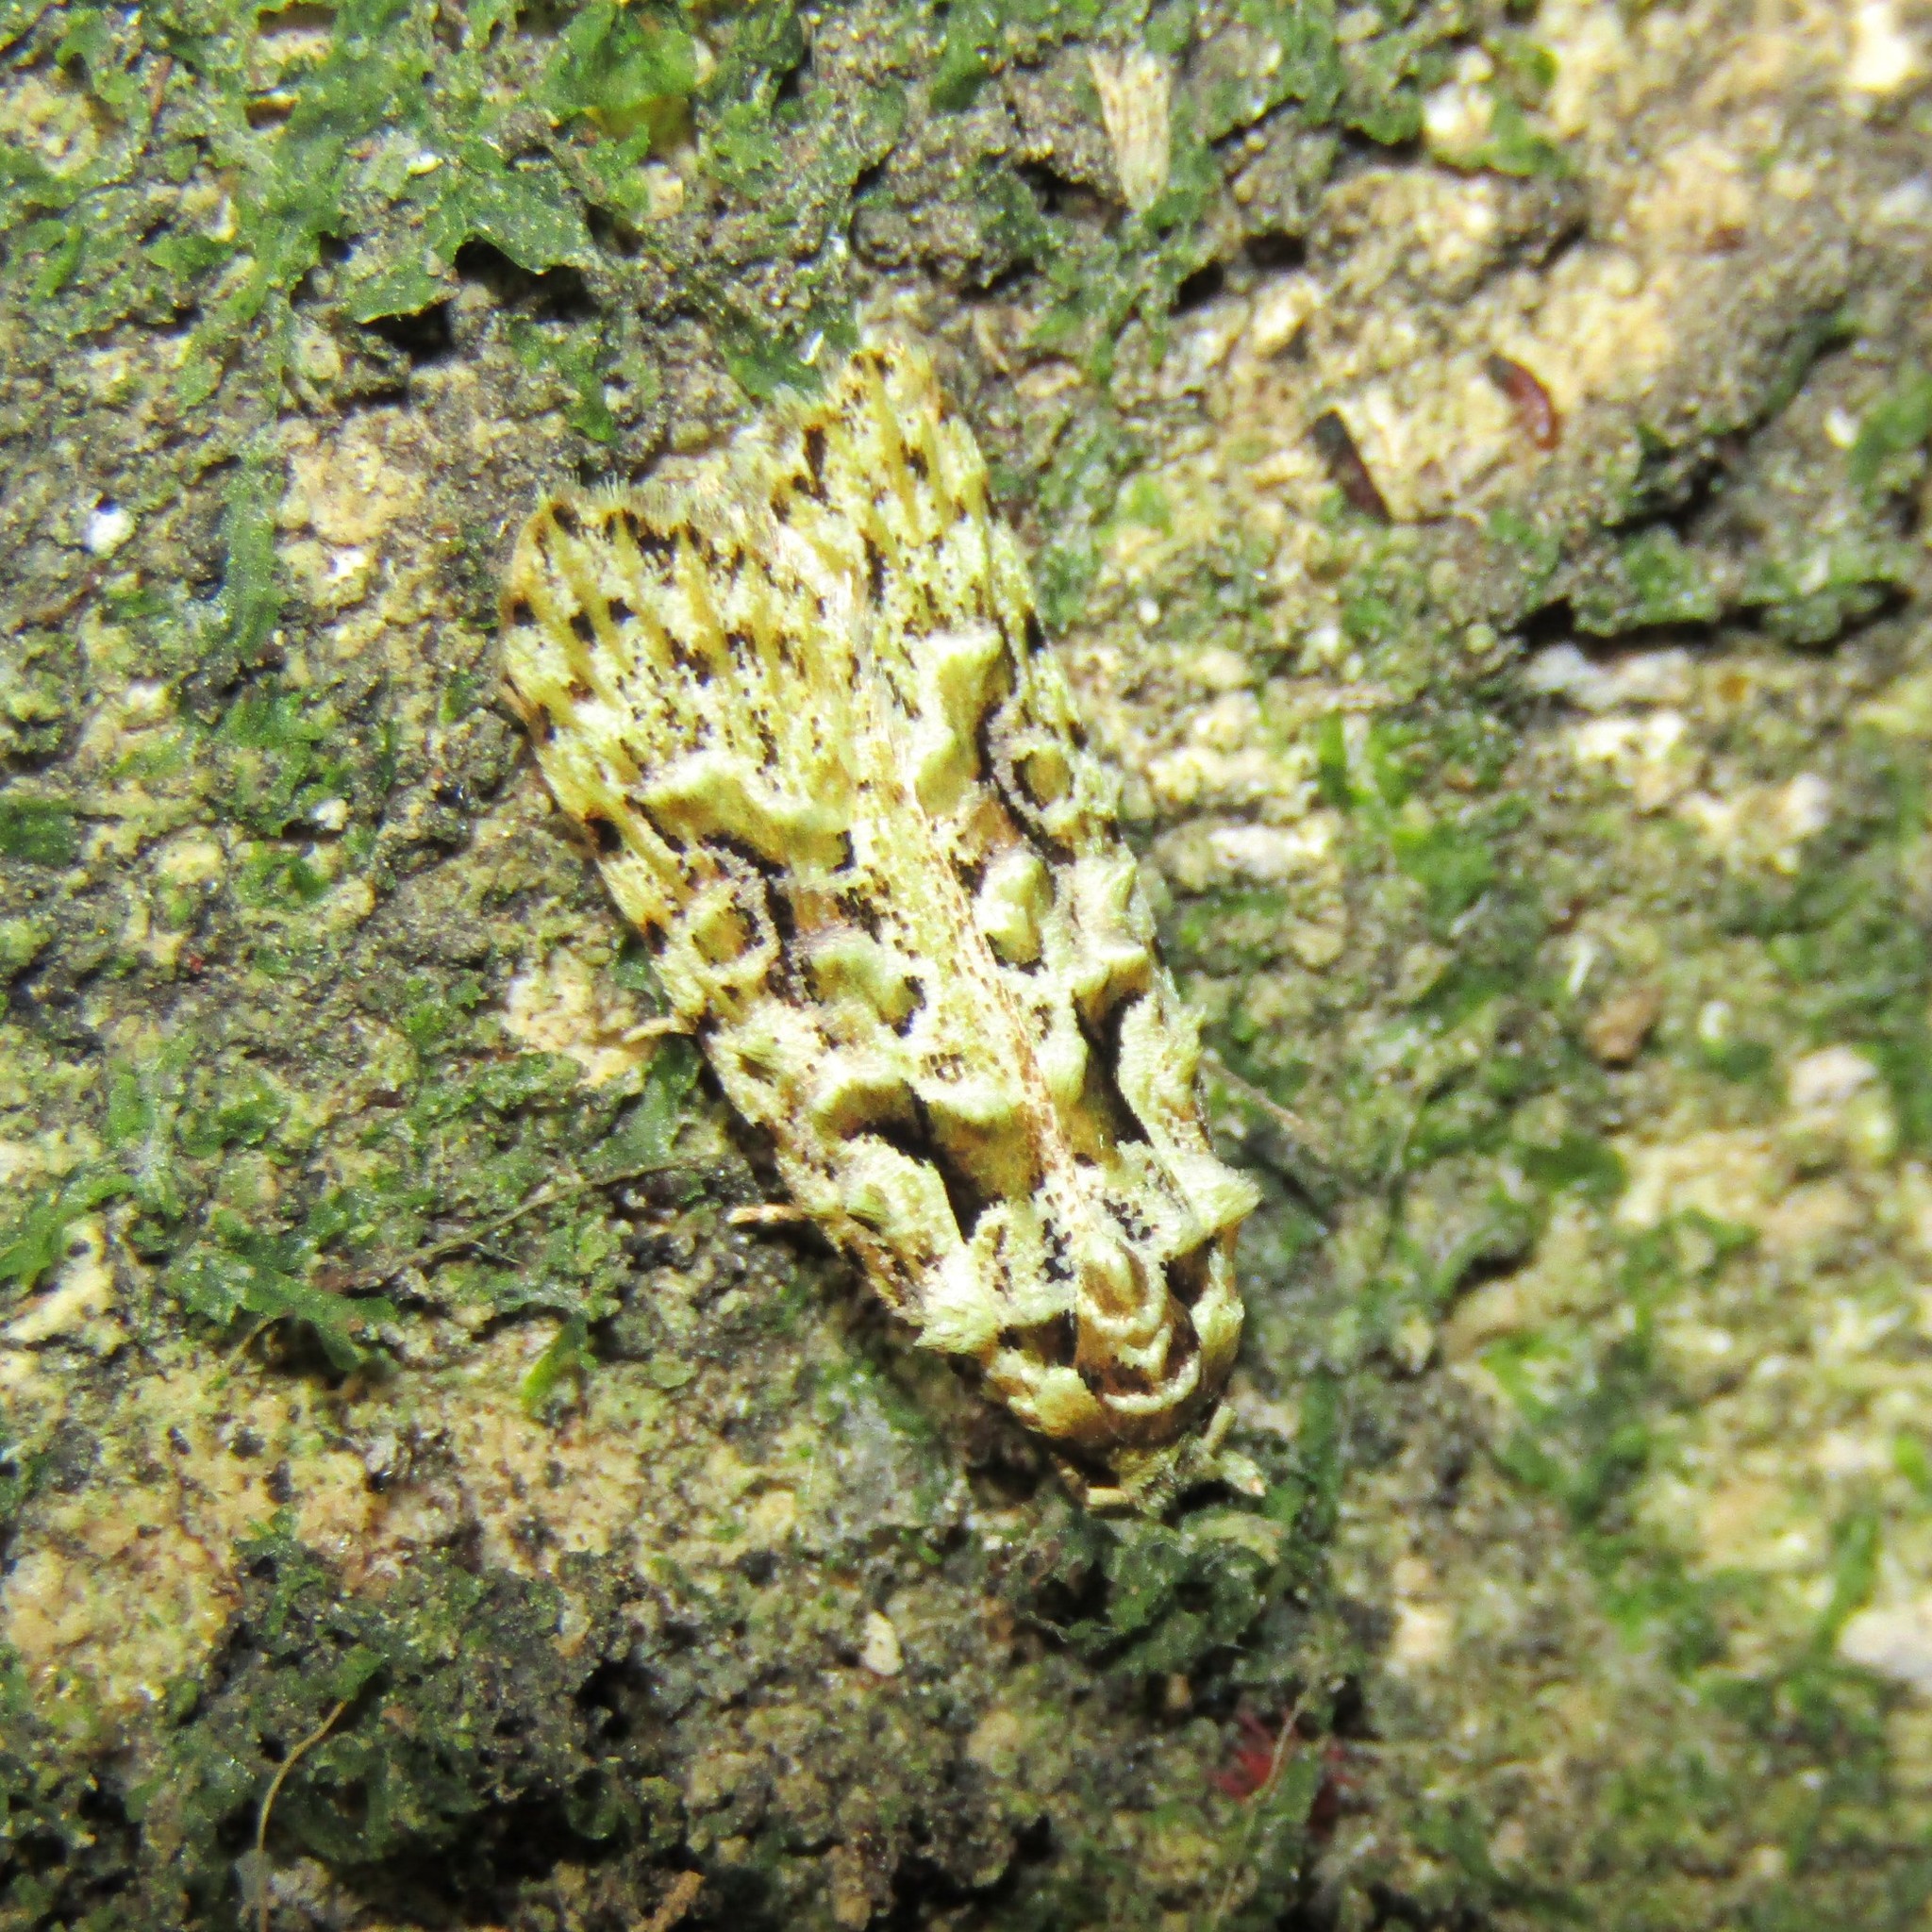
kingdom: Animalia
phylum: Arthropoda
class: Insecta
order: Lepidoptera
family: Carposinidae
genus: Carposina
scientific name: Carposina Heterocrossa eriphylla
